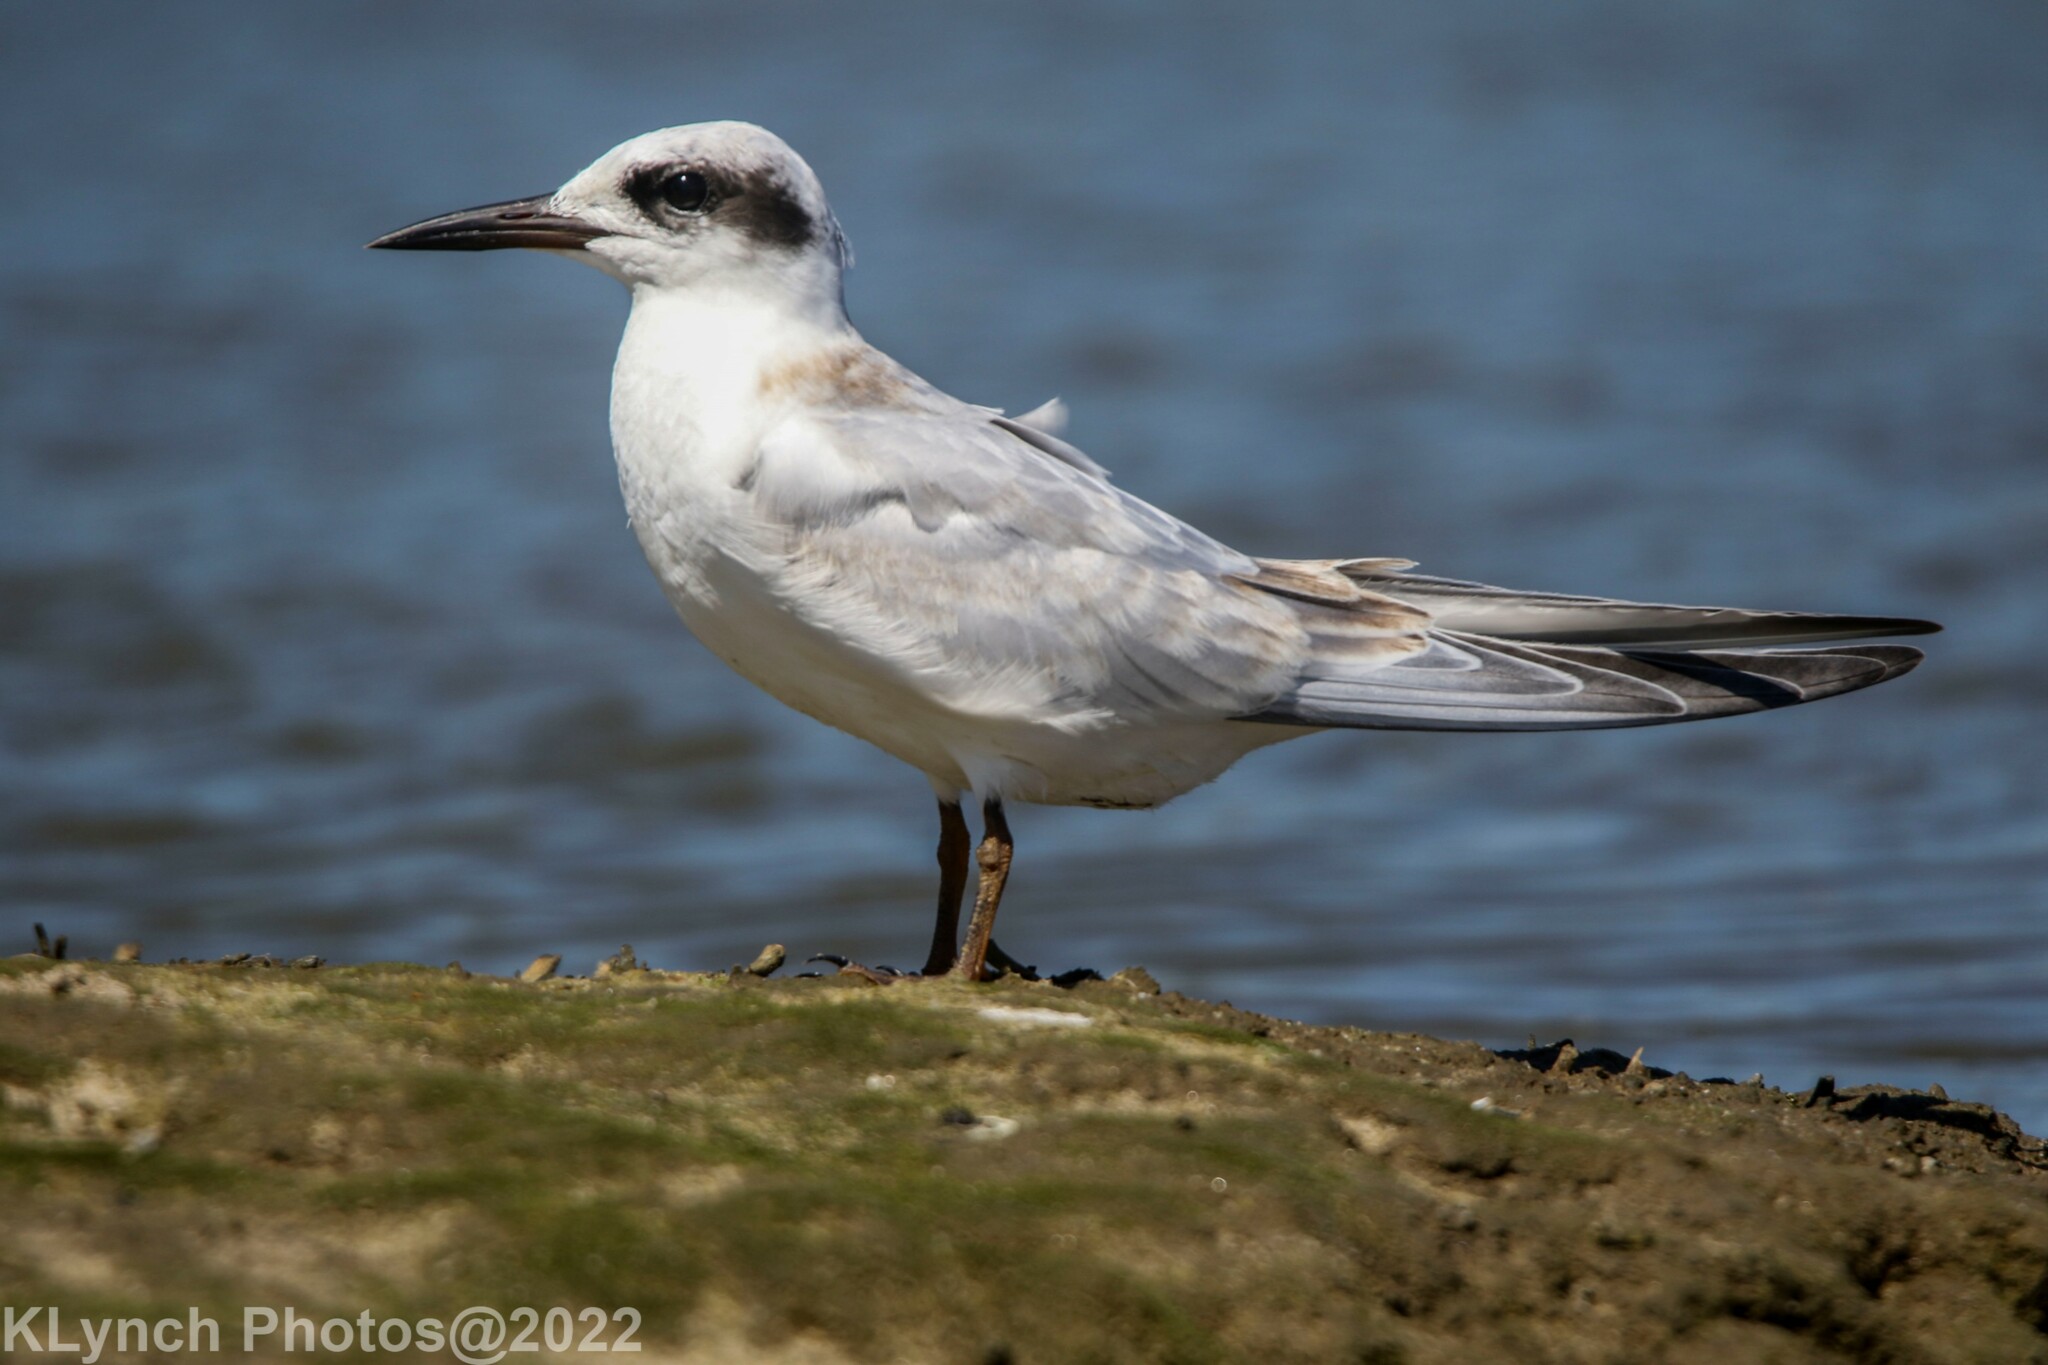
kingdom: Animalia
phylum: Chordata
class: Aves
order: Charadriiformes
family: Laridae
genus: Sterna
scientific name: Sterna forsteri
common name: Forster's tern
